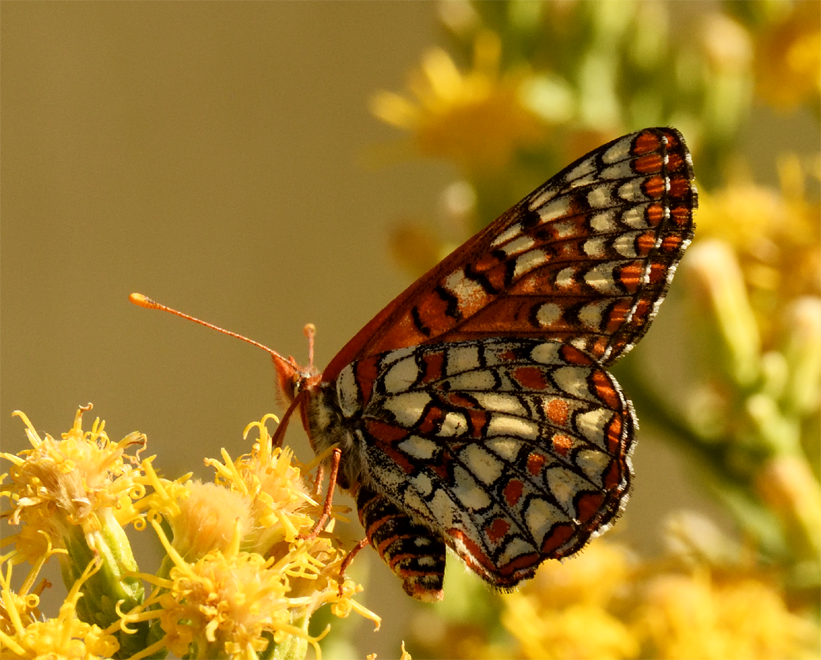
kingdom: Animalia
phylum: Arthropoda
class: Insecta
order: Lepidoptera
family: Nymphalidae
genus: Occidryas
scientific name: Occidryas chalcedona
